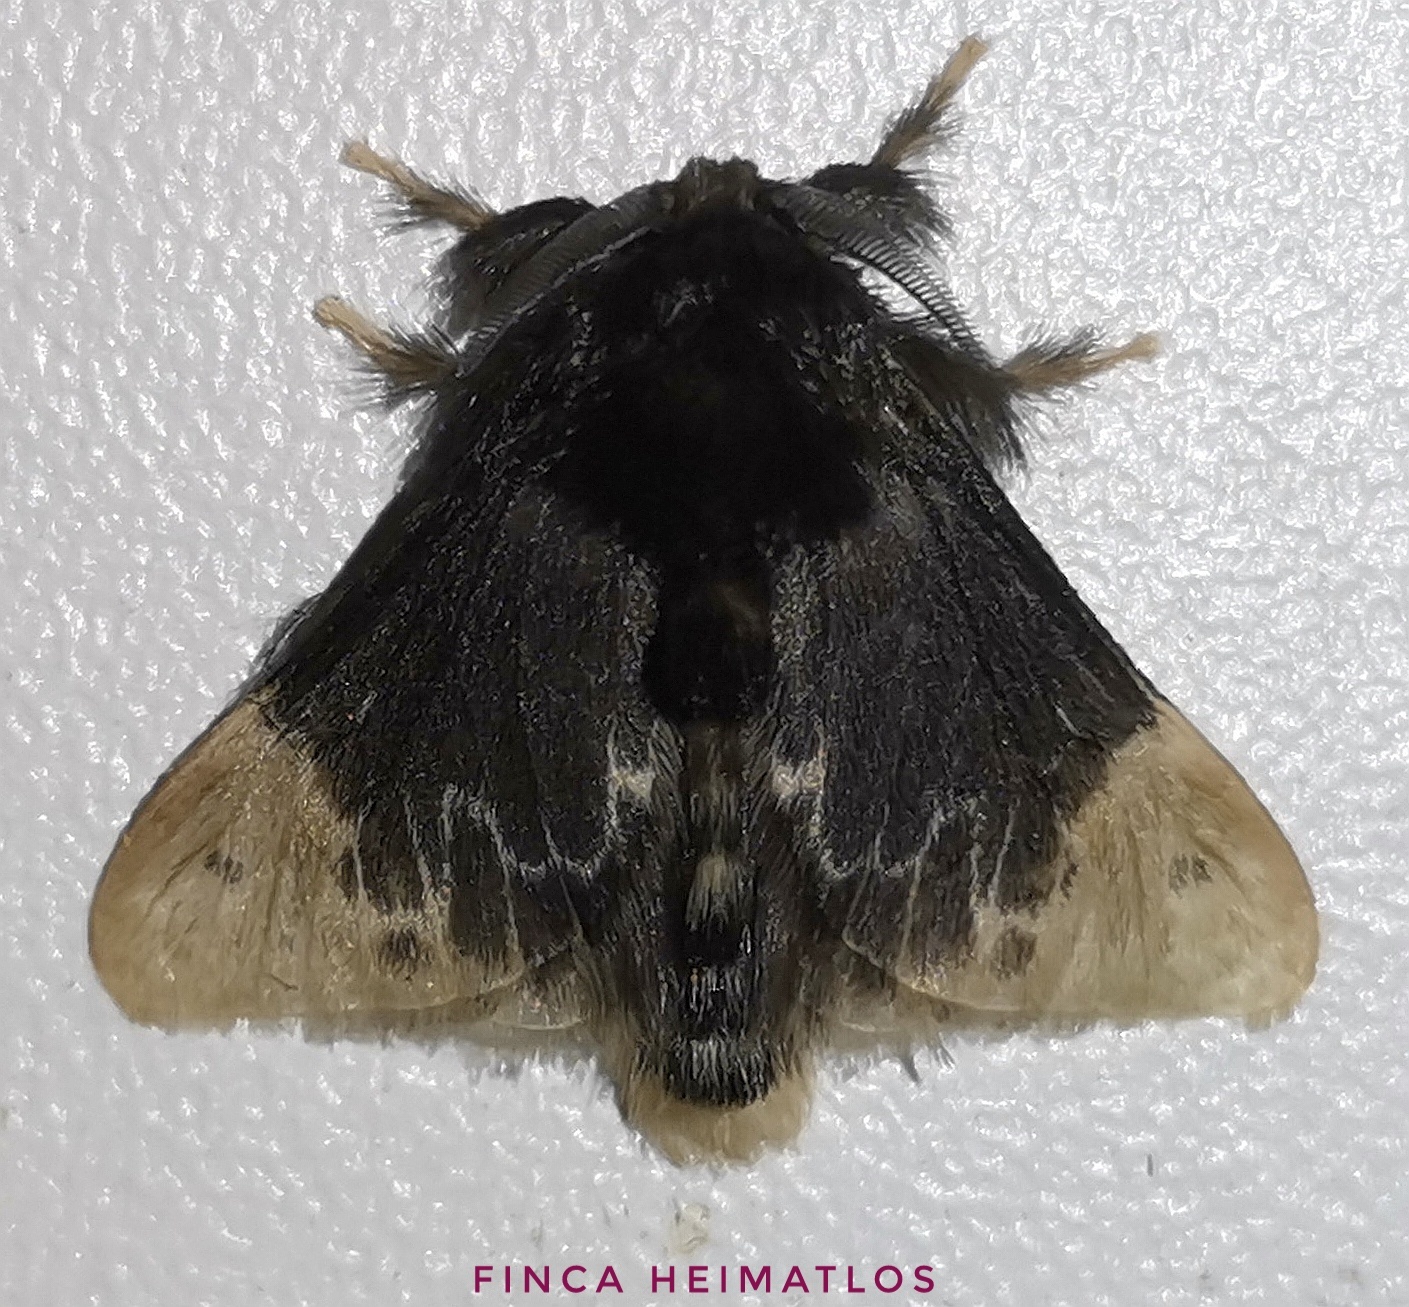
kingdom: Animalia
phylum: Arthropoda
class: Insecta
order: Lepidoptera
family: Megalopygidae
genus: Podalia
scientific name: Podalia amarga
